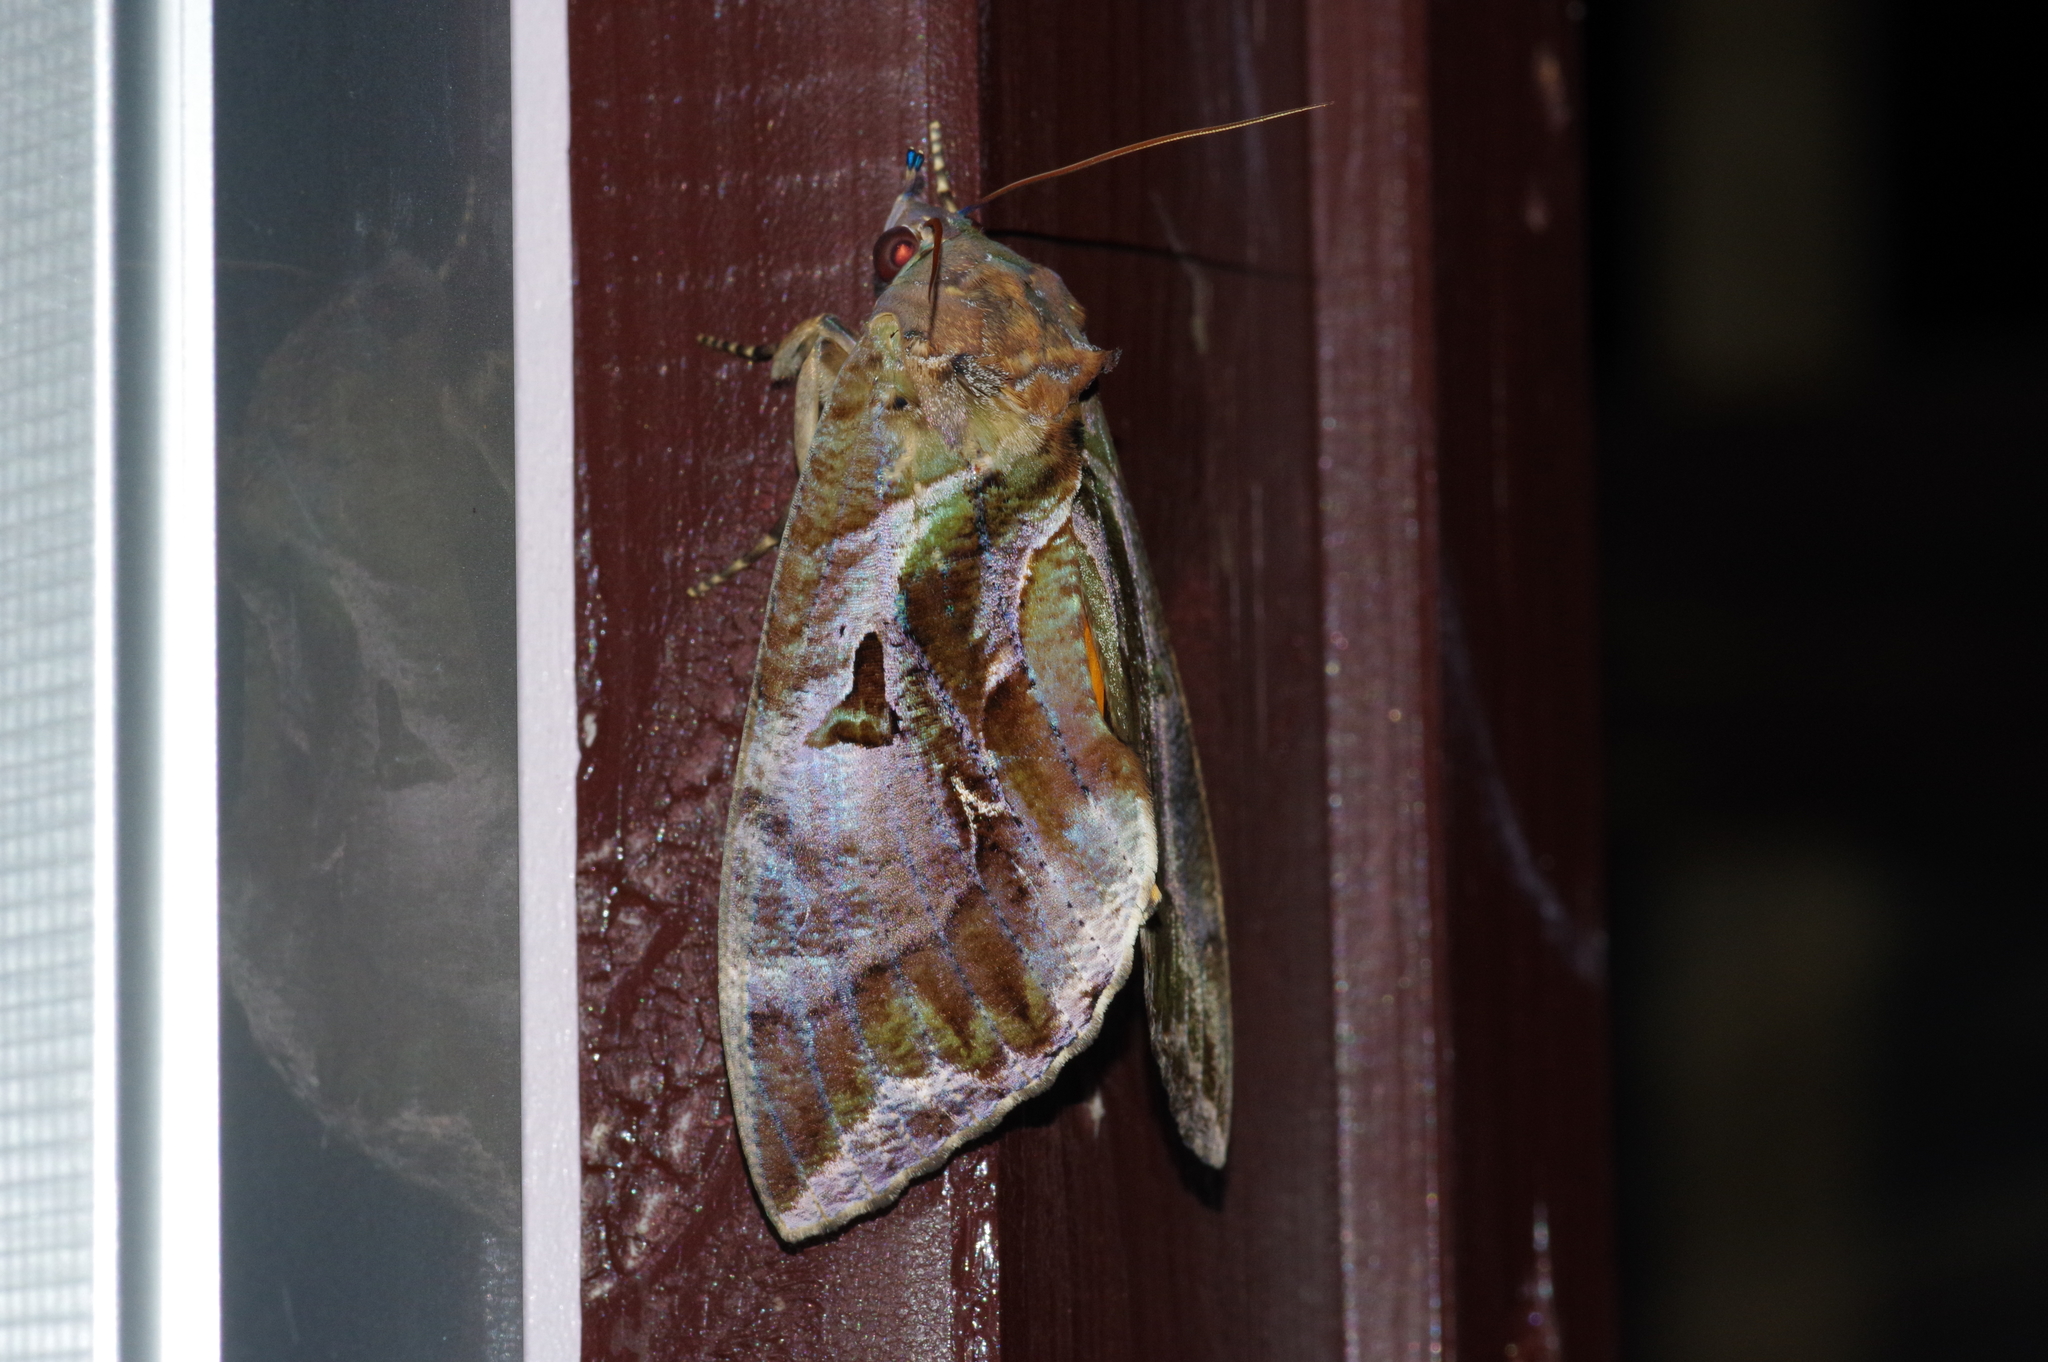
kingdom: Animalia
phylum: Arthropoda
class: Insecta
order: Lepidoptera
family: Erebidae
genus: Eudocima
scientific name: Eudocima phalonia
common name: Wasp
